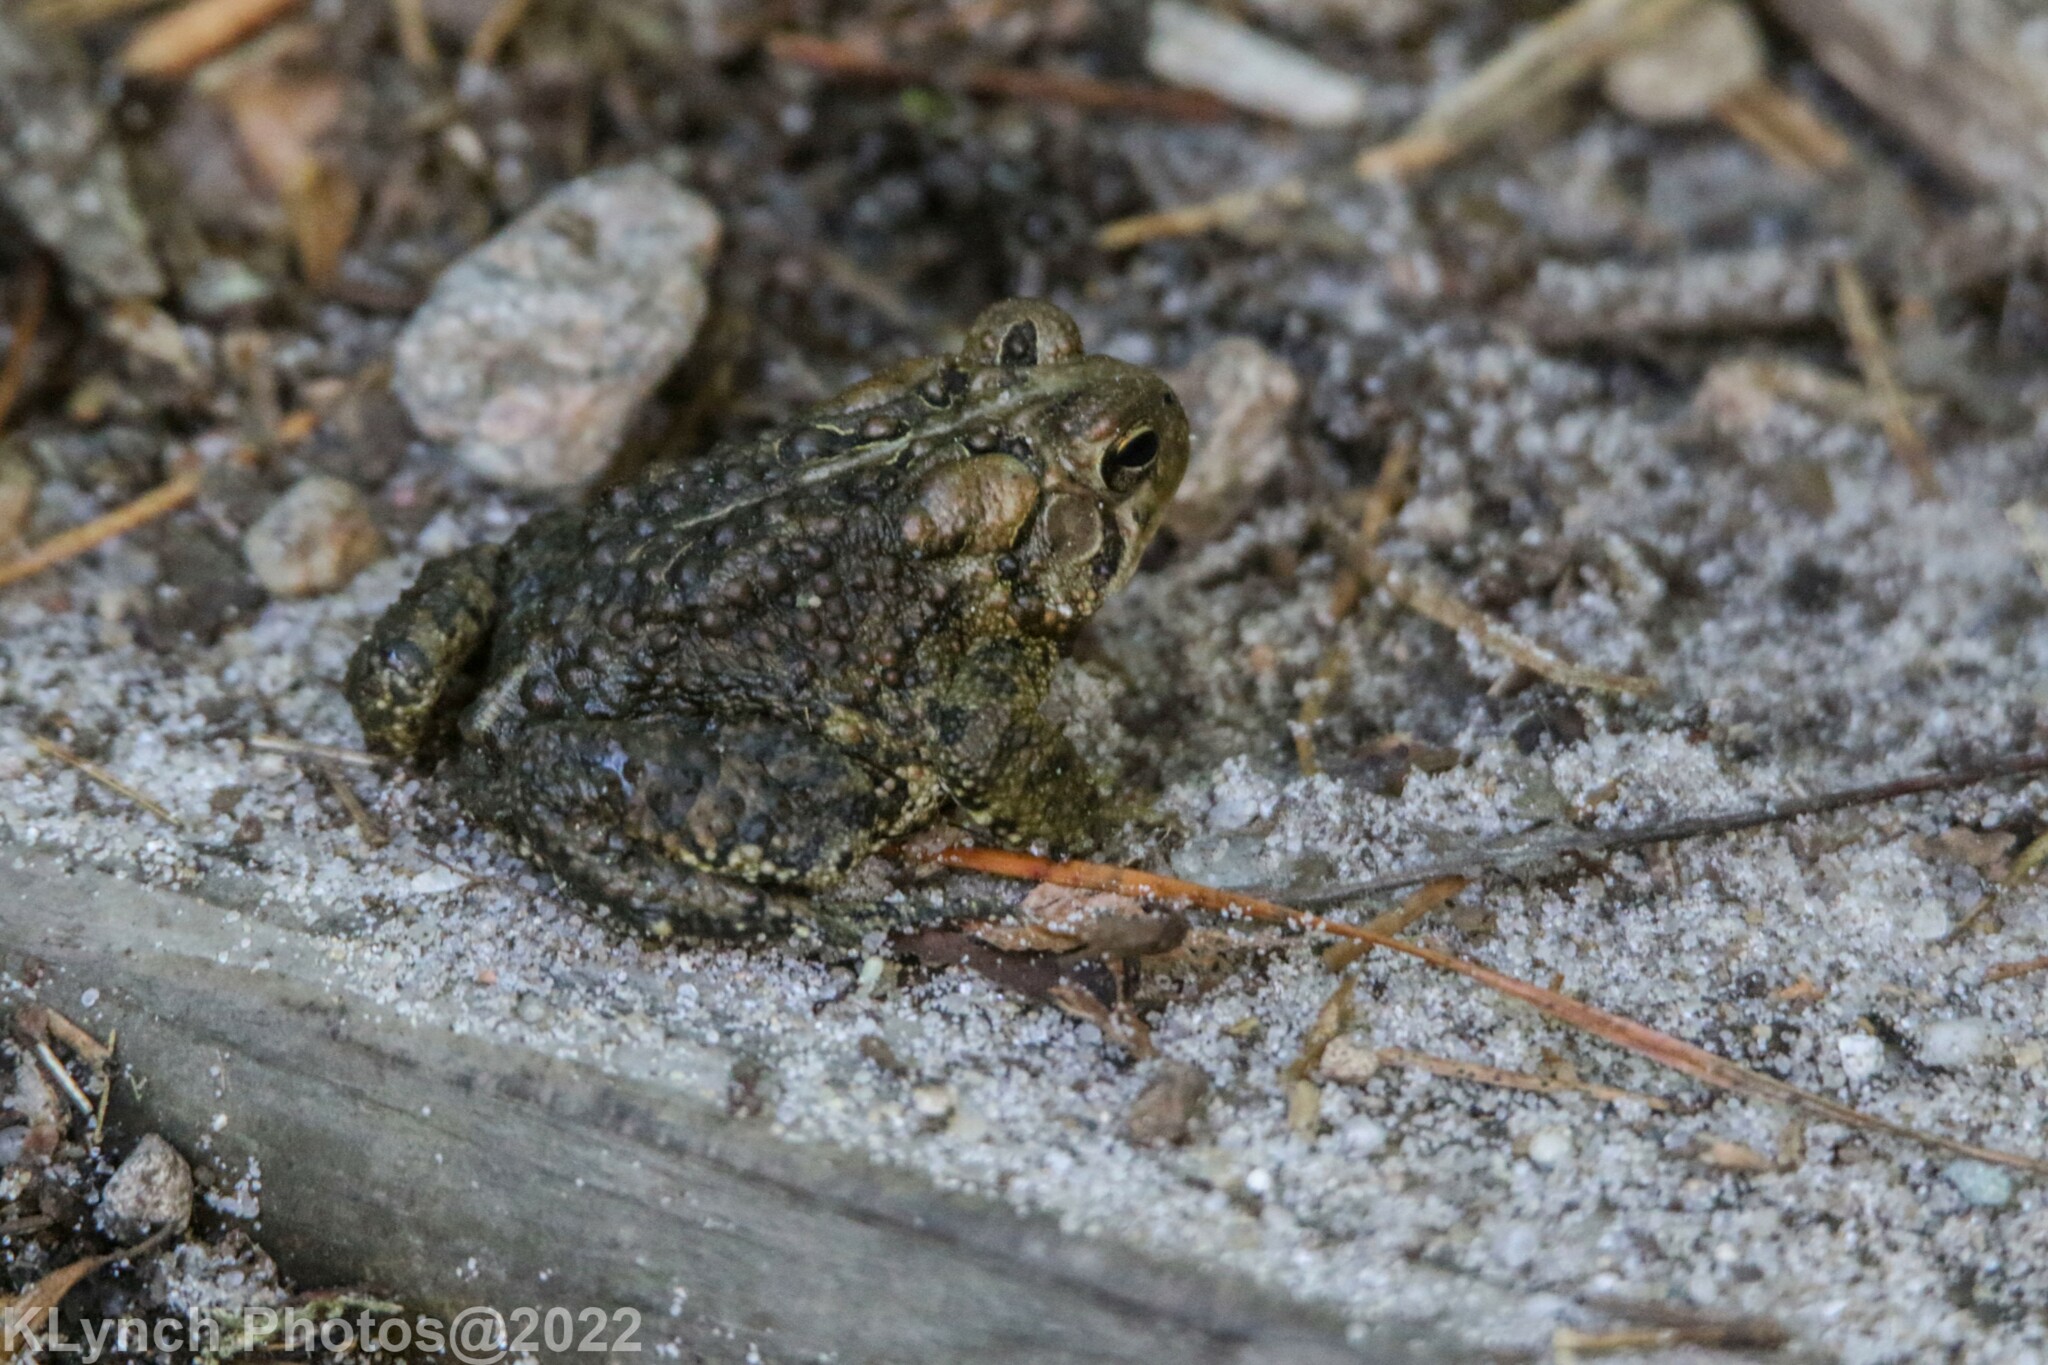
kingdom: Animalia
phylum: Chordata
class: Amphibia
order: Anura
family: Bufonidae
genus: Anaxyrus
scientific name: Anaxyrus americanus
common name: American toad
